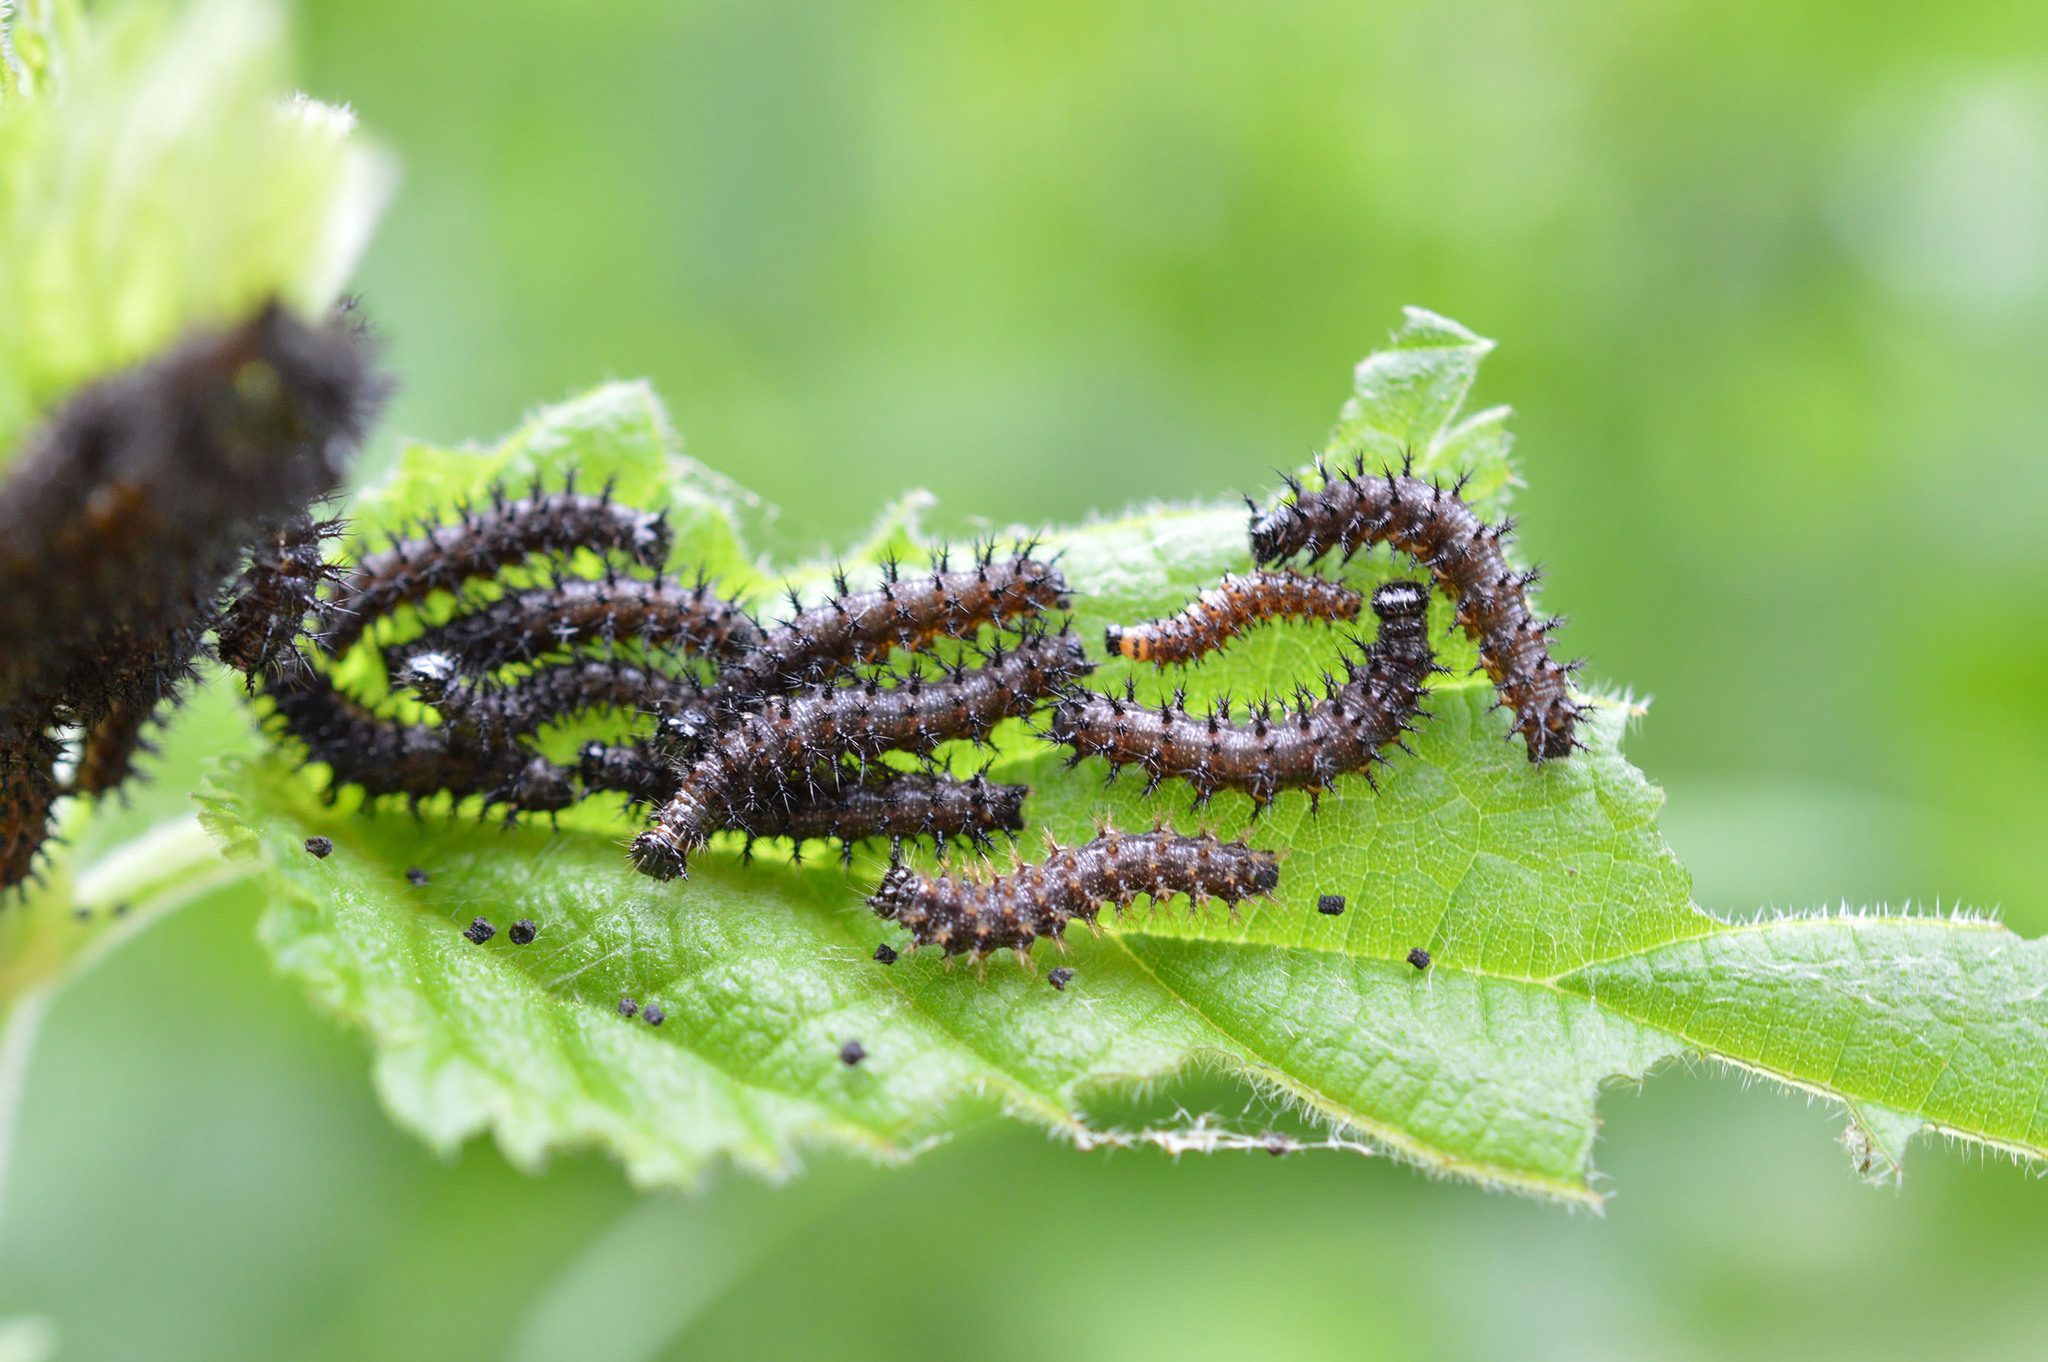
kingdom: Animalia
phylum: Arthropoda
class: Insecta
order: Lepidoptera
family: Nymphalidae
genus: Araschnia
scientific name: Araschnia levana
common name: Map butterfly
